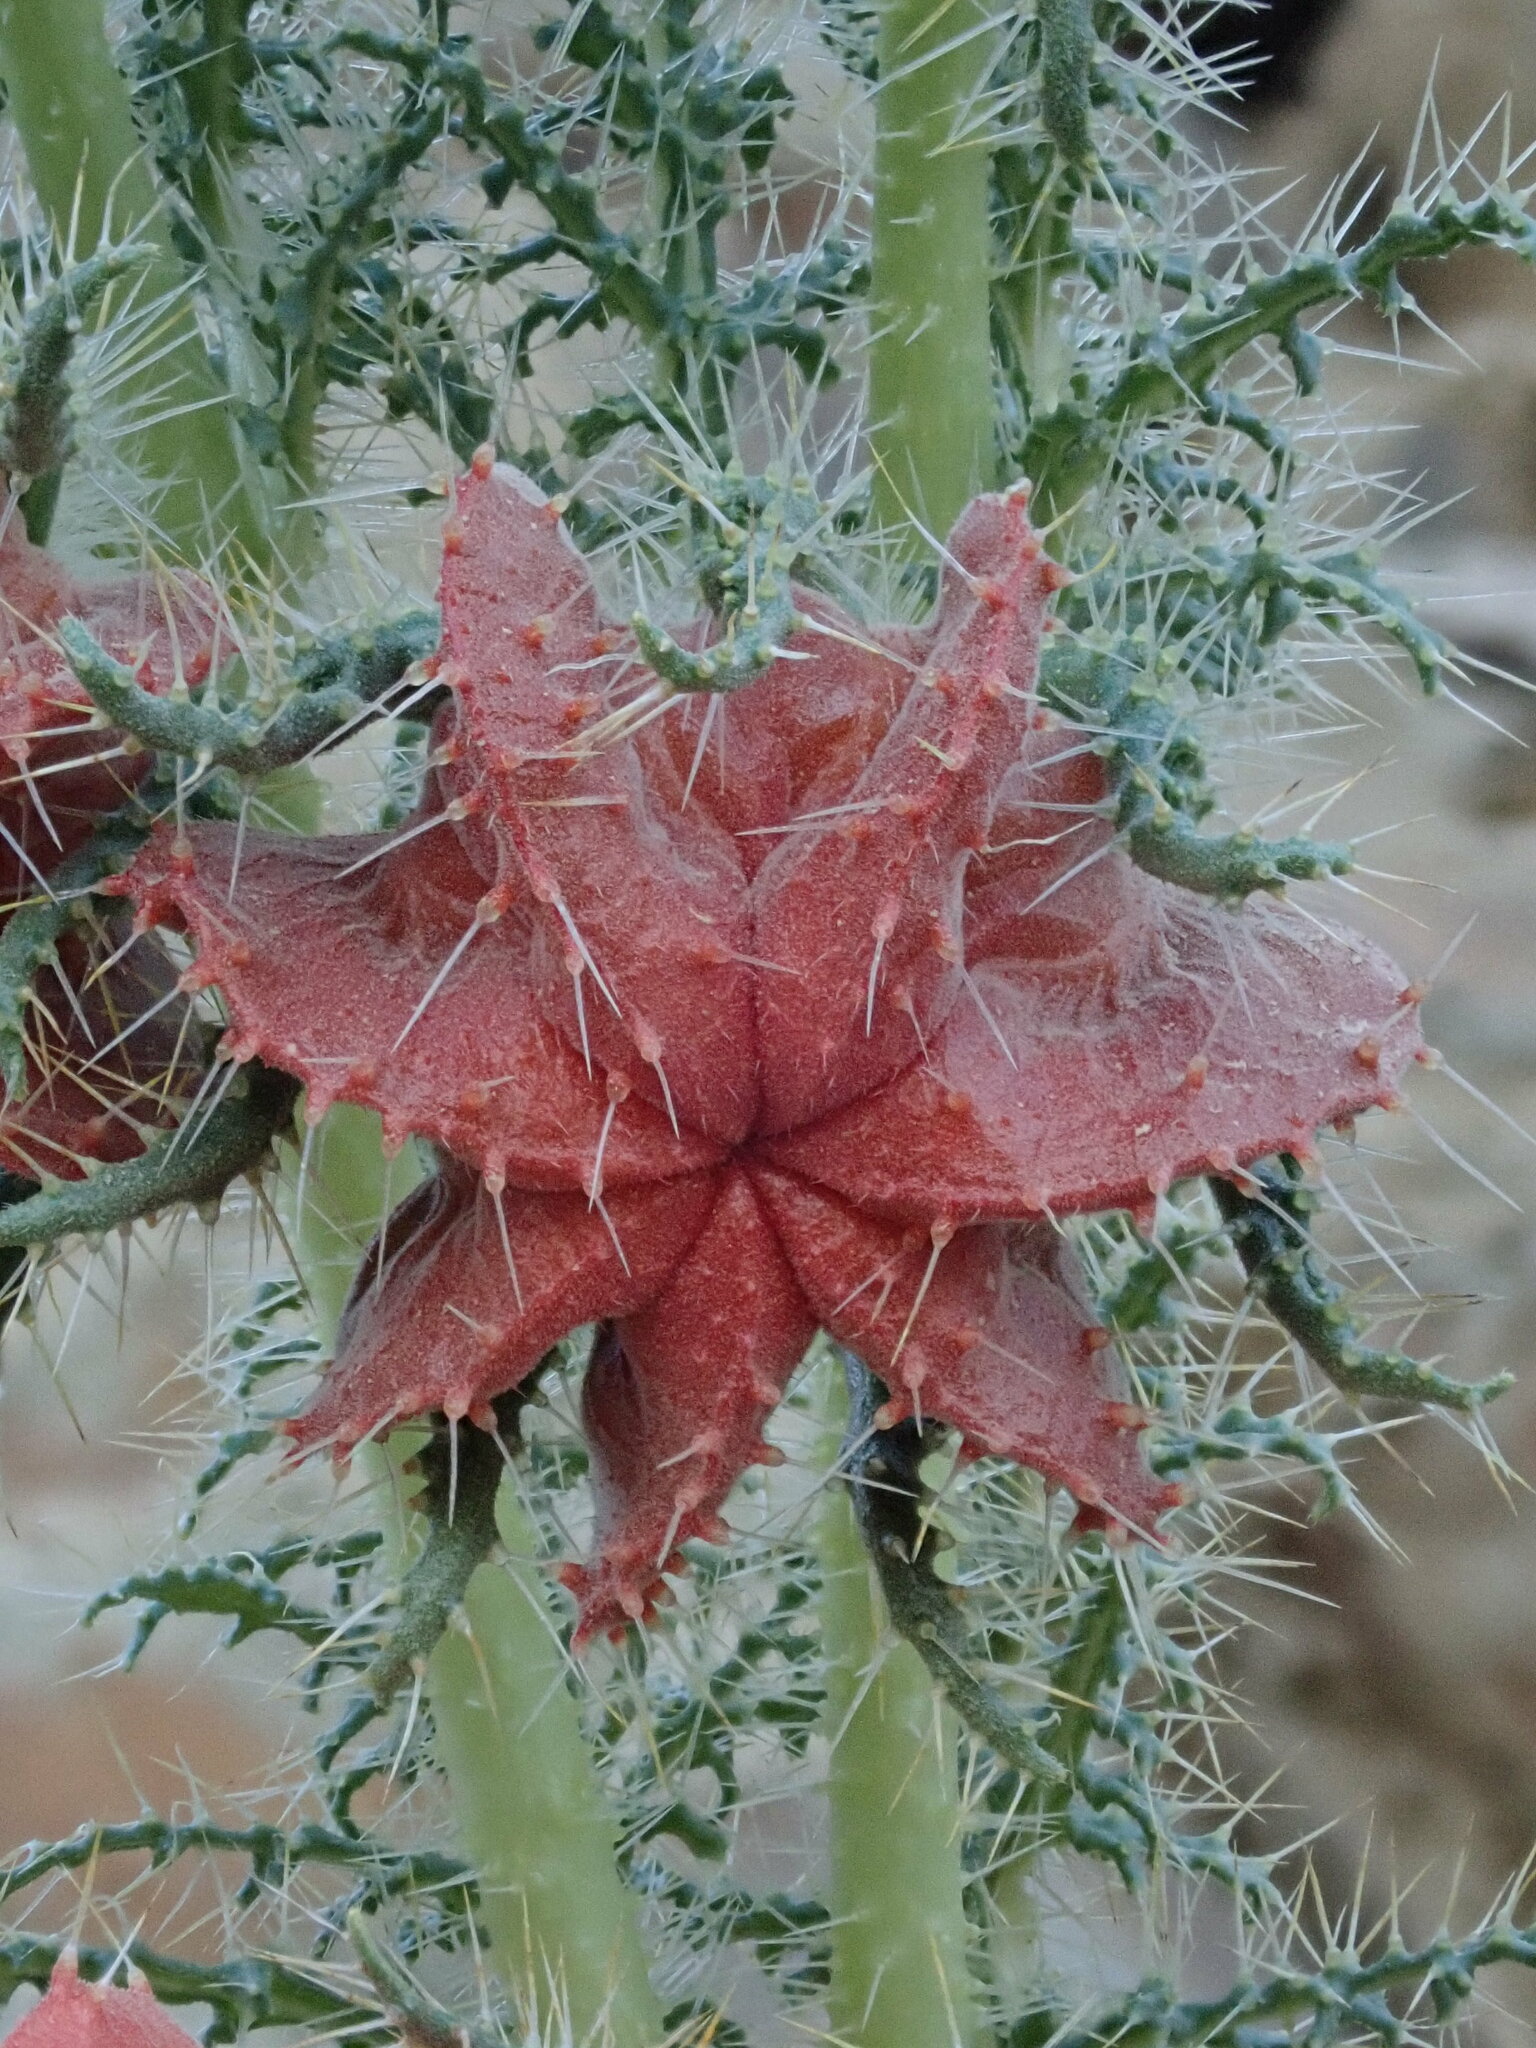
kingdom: Plantae
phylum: Tracheophyta
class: Magnoliopsida
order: Cornales
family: Loasaceae
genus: Caiophora
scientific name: Caiophora chuquitensis
